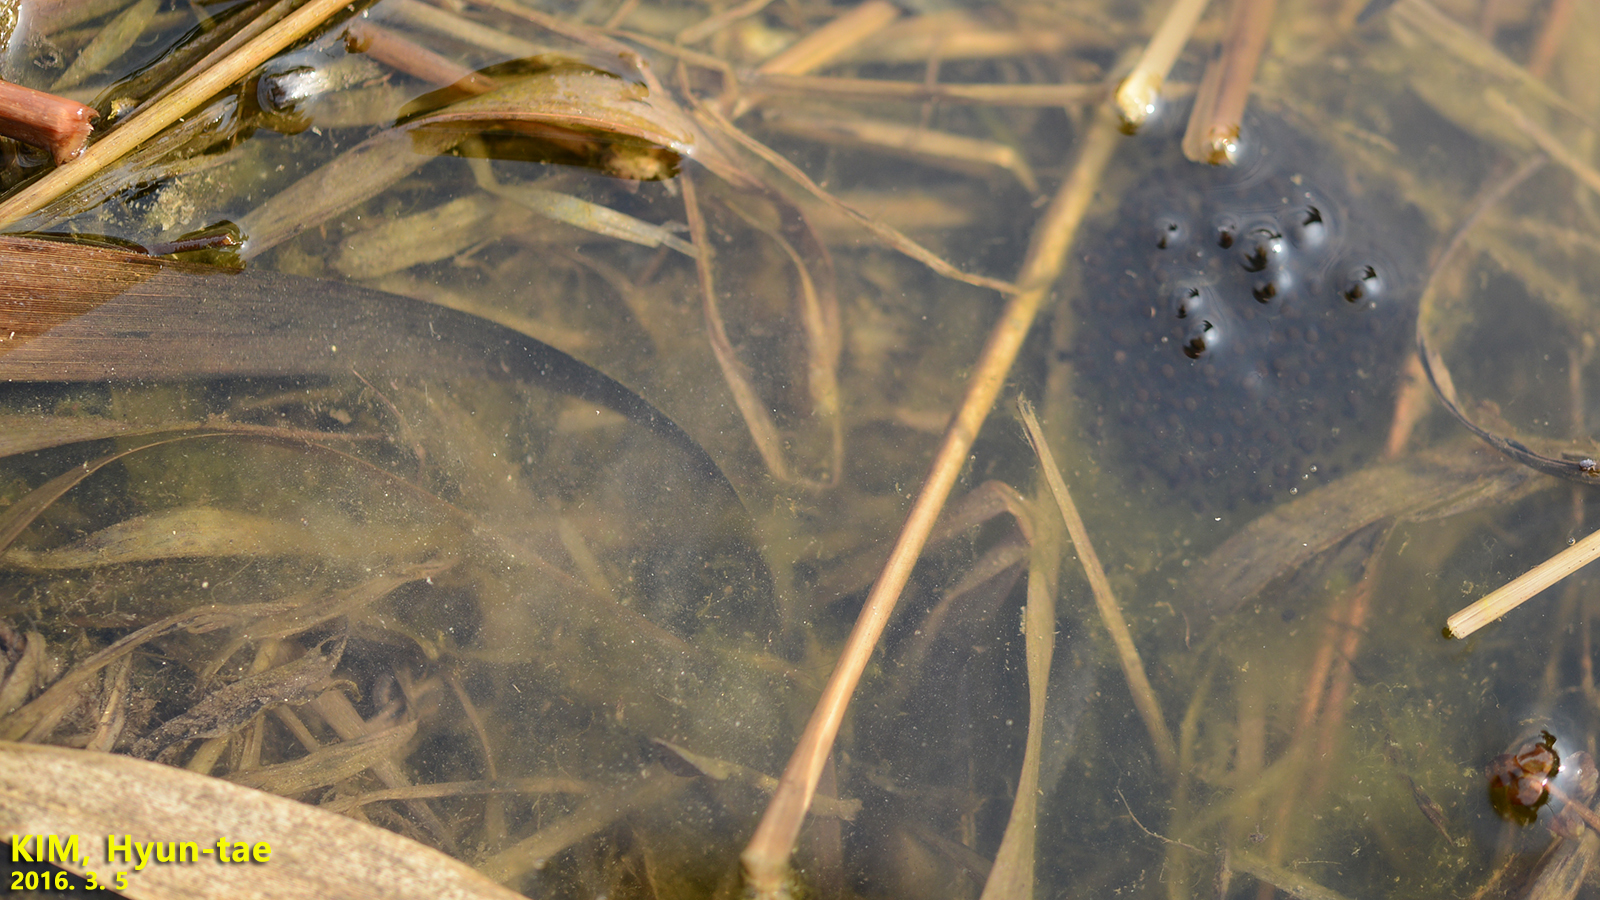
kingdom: Animalia
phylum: Chordata
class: Amphibia
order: Anura
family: Ranidae
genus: Rana
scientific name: Rana coreana
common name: Korean brown frog
